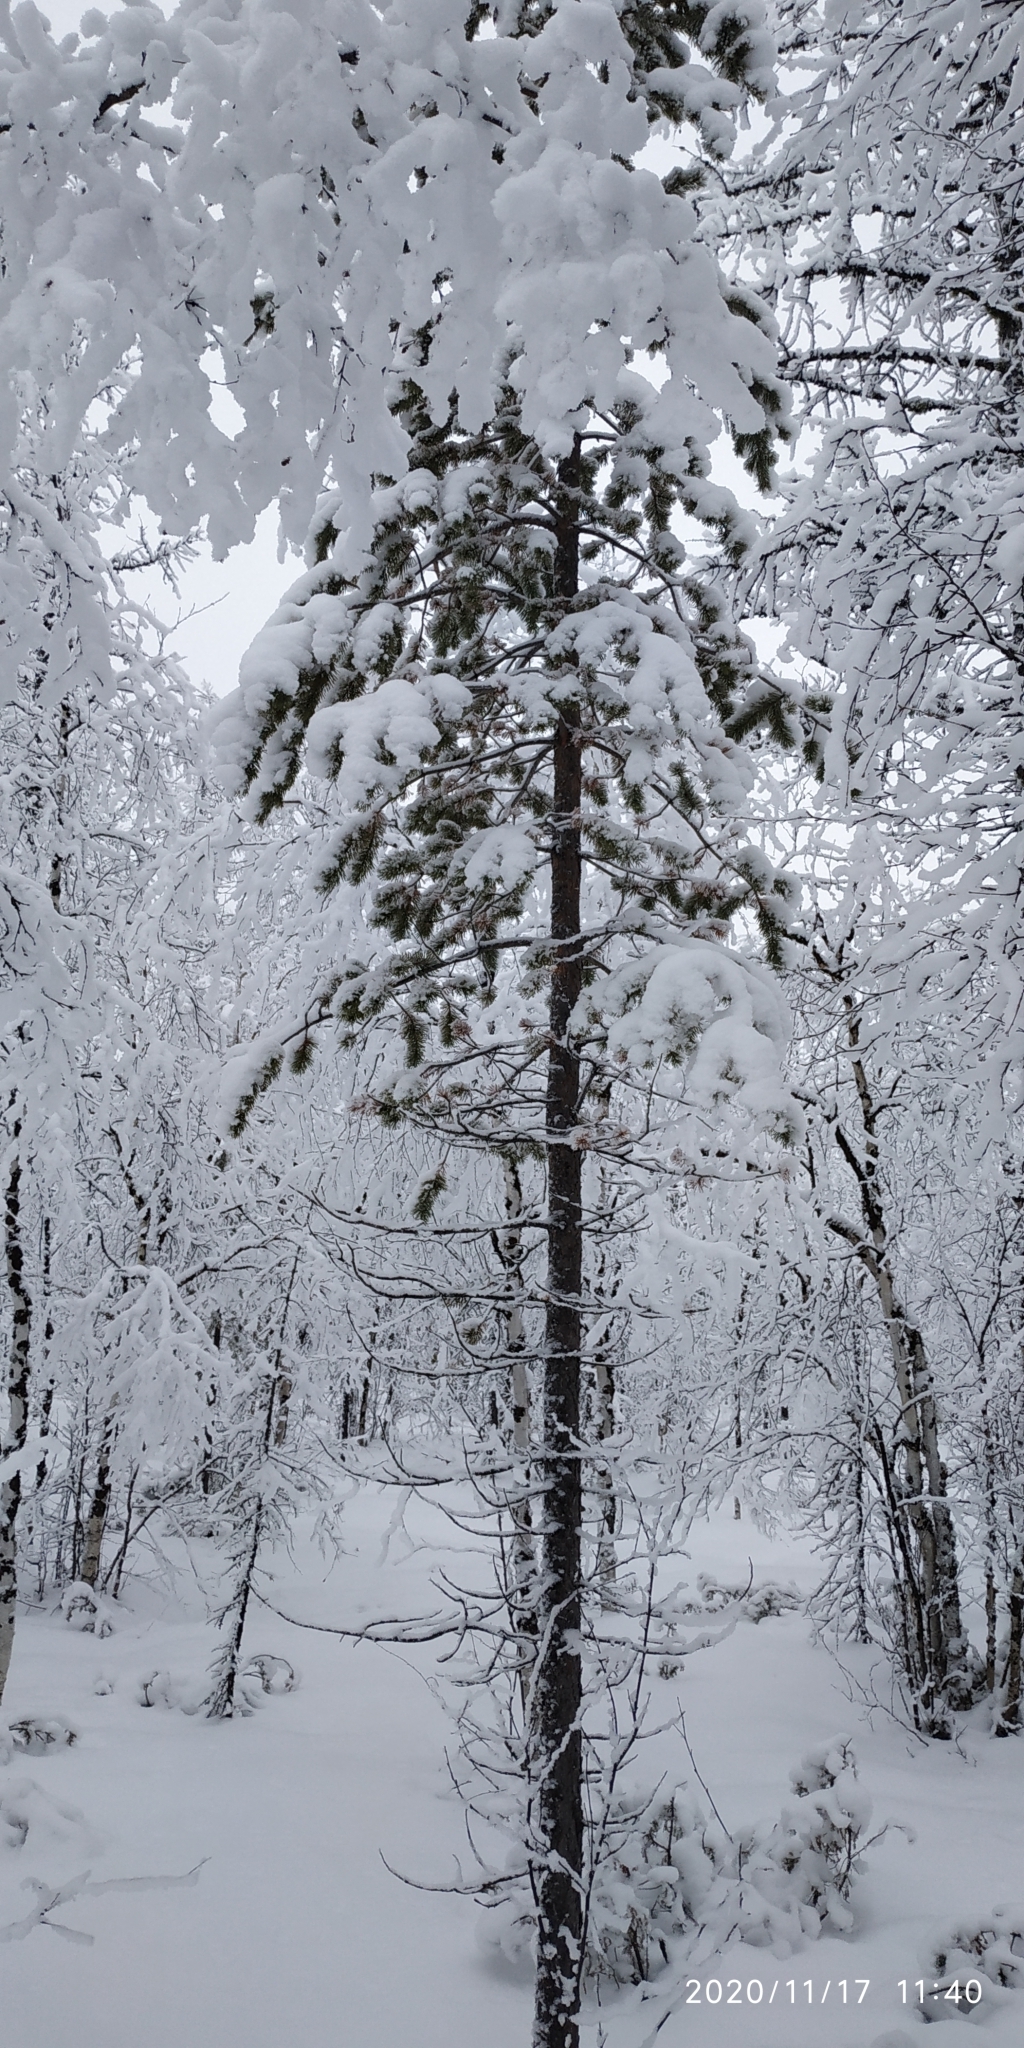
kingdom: Plantae
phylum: Tracheophyta
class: Pinopsida
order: Pinales
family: Pinaceae
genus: Pinus
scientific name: Pinus sylvestris
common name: Scots pine
